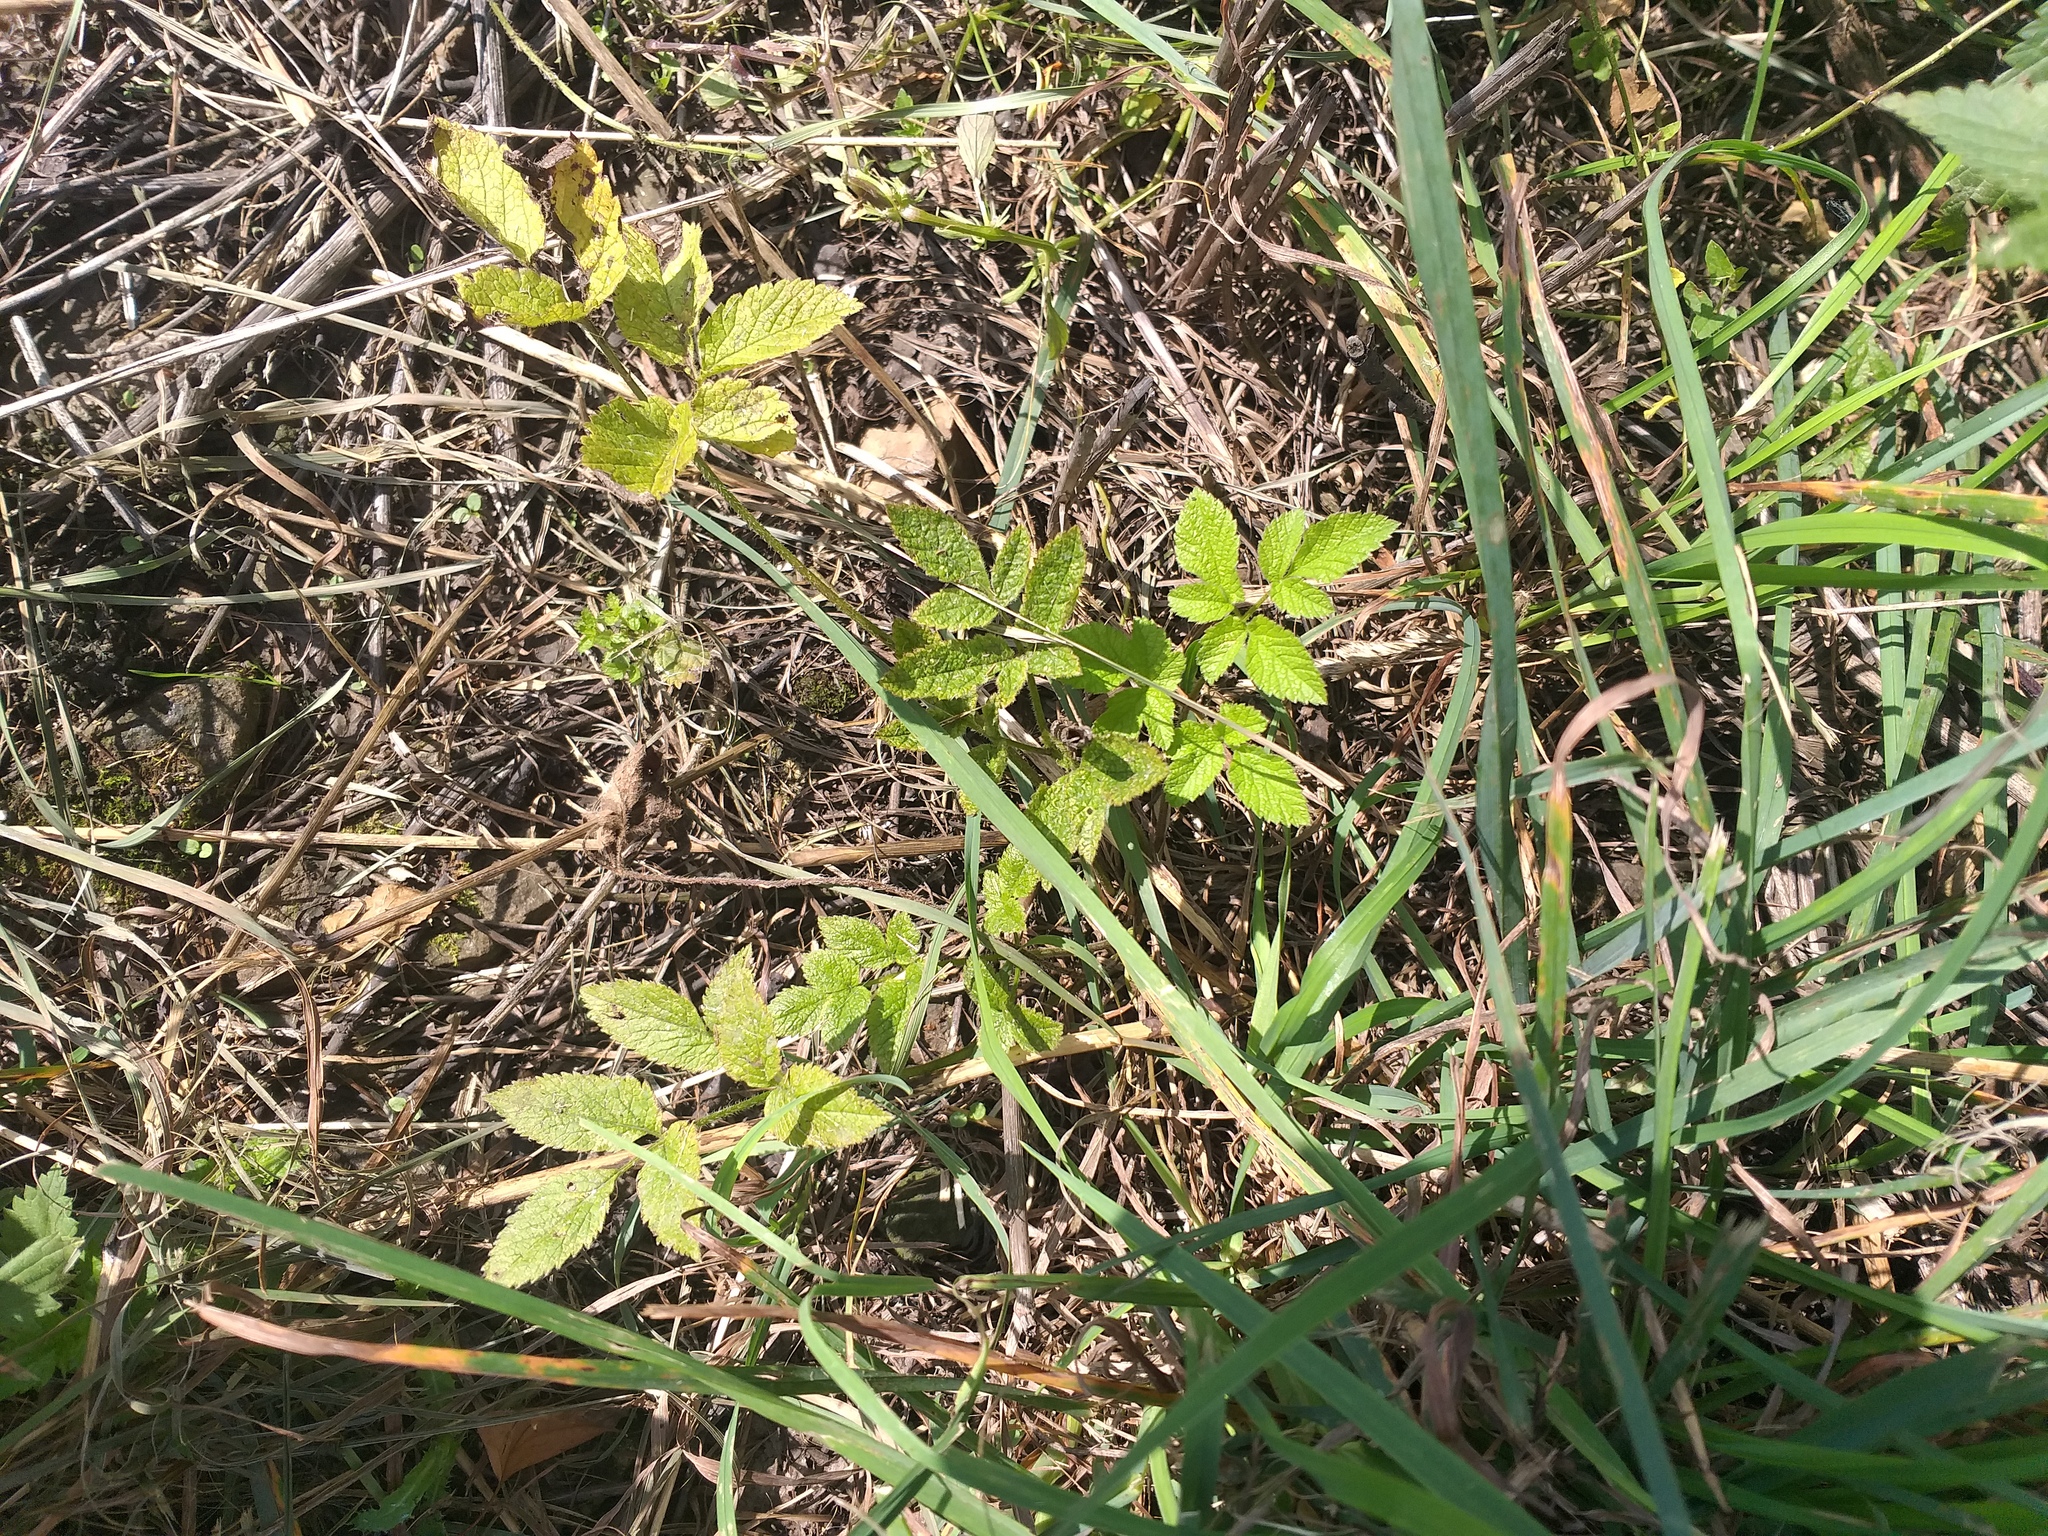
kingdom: Plantae
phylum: Tracheophyta
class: Magnoliopsida
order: Apiales
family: Apiaceae
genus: Chaerophyllum
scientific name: Chaerophyllum aromaticum
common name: Broadleaf chervil
